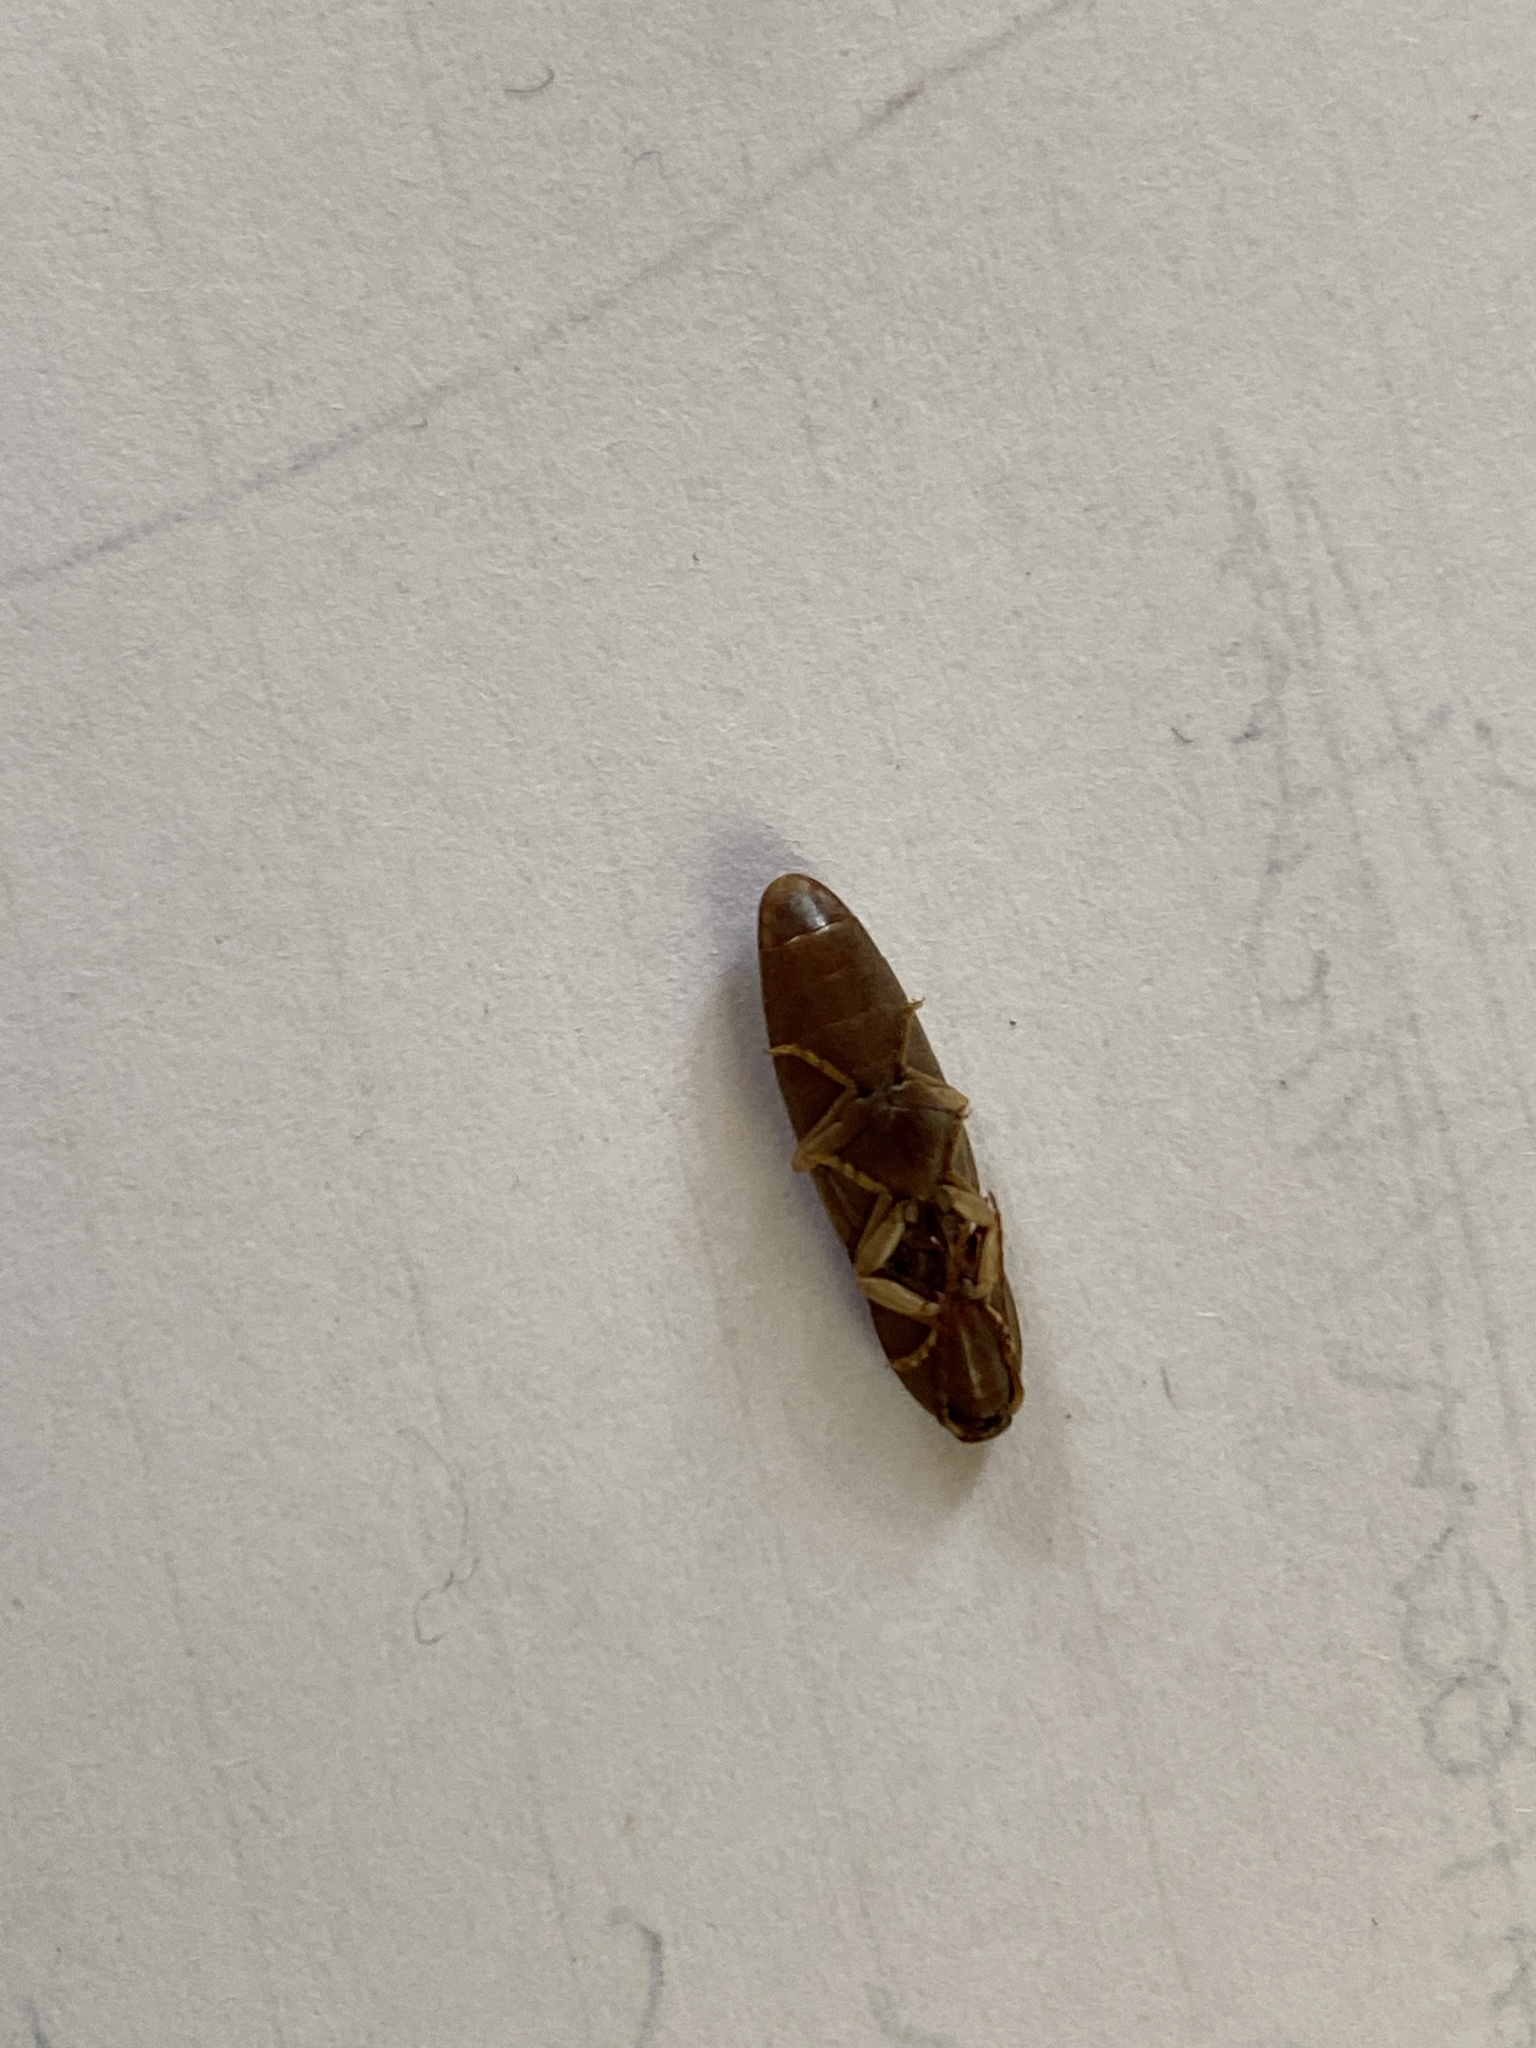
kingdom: Animalia
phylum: Arthropoda
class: Insecta
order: Coleoptera
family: Elateridae
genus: Monocrepidius
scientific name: Monocrepidius lividus
